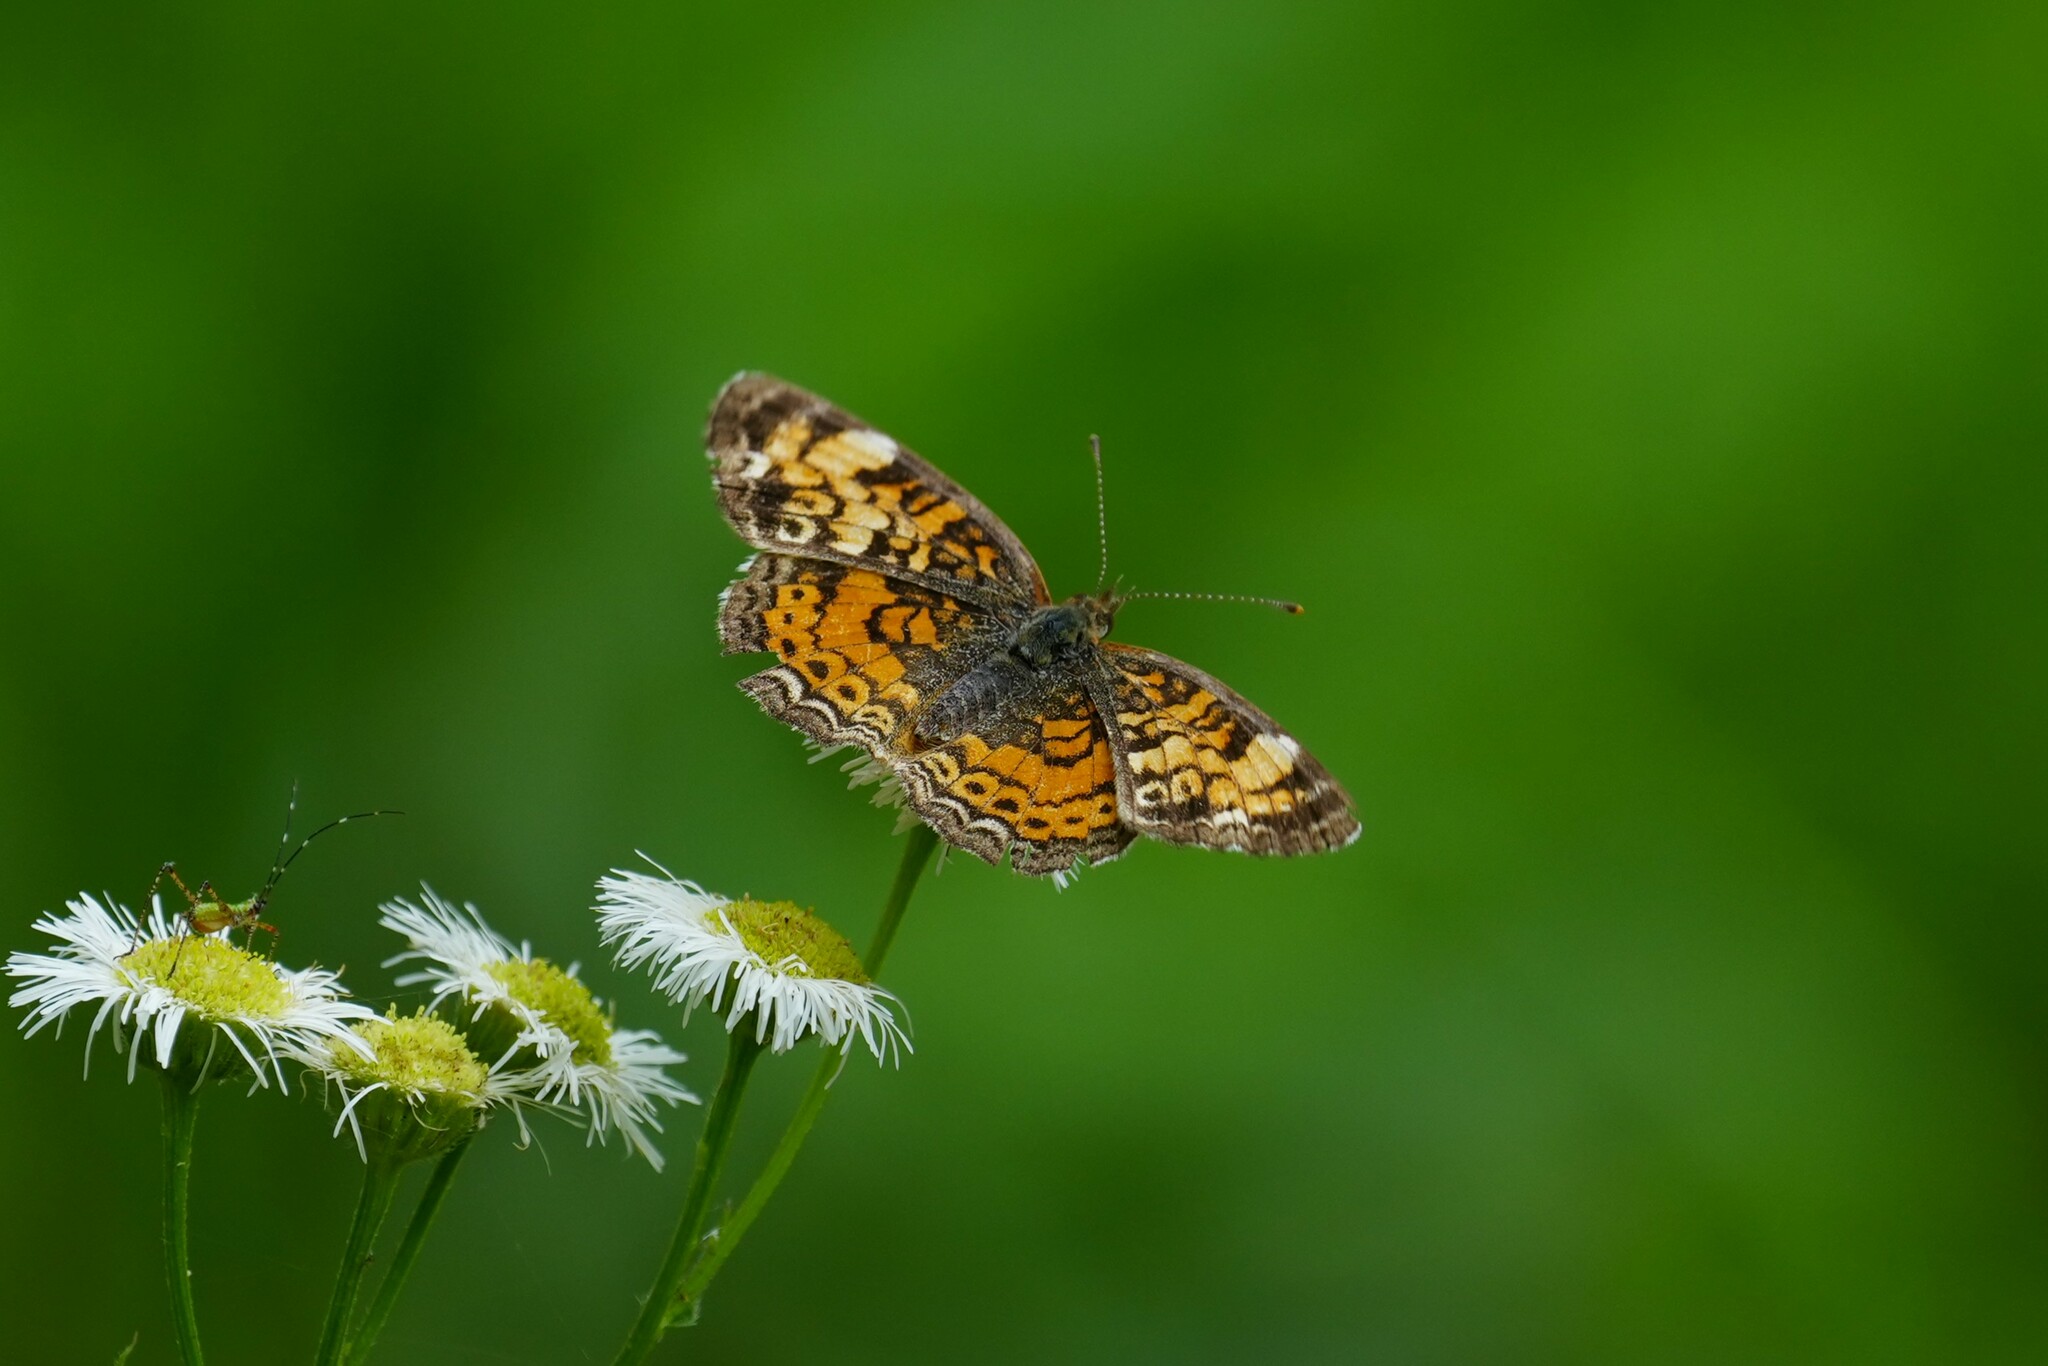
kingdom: Animalia
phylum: Arthropoda
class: Insecta
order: Lepidoptera
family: Nymphalidae
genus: Phyciodes
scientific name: Phyciodes tharos
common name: Pearl crescent
